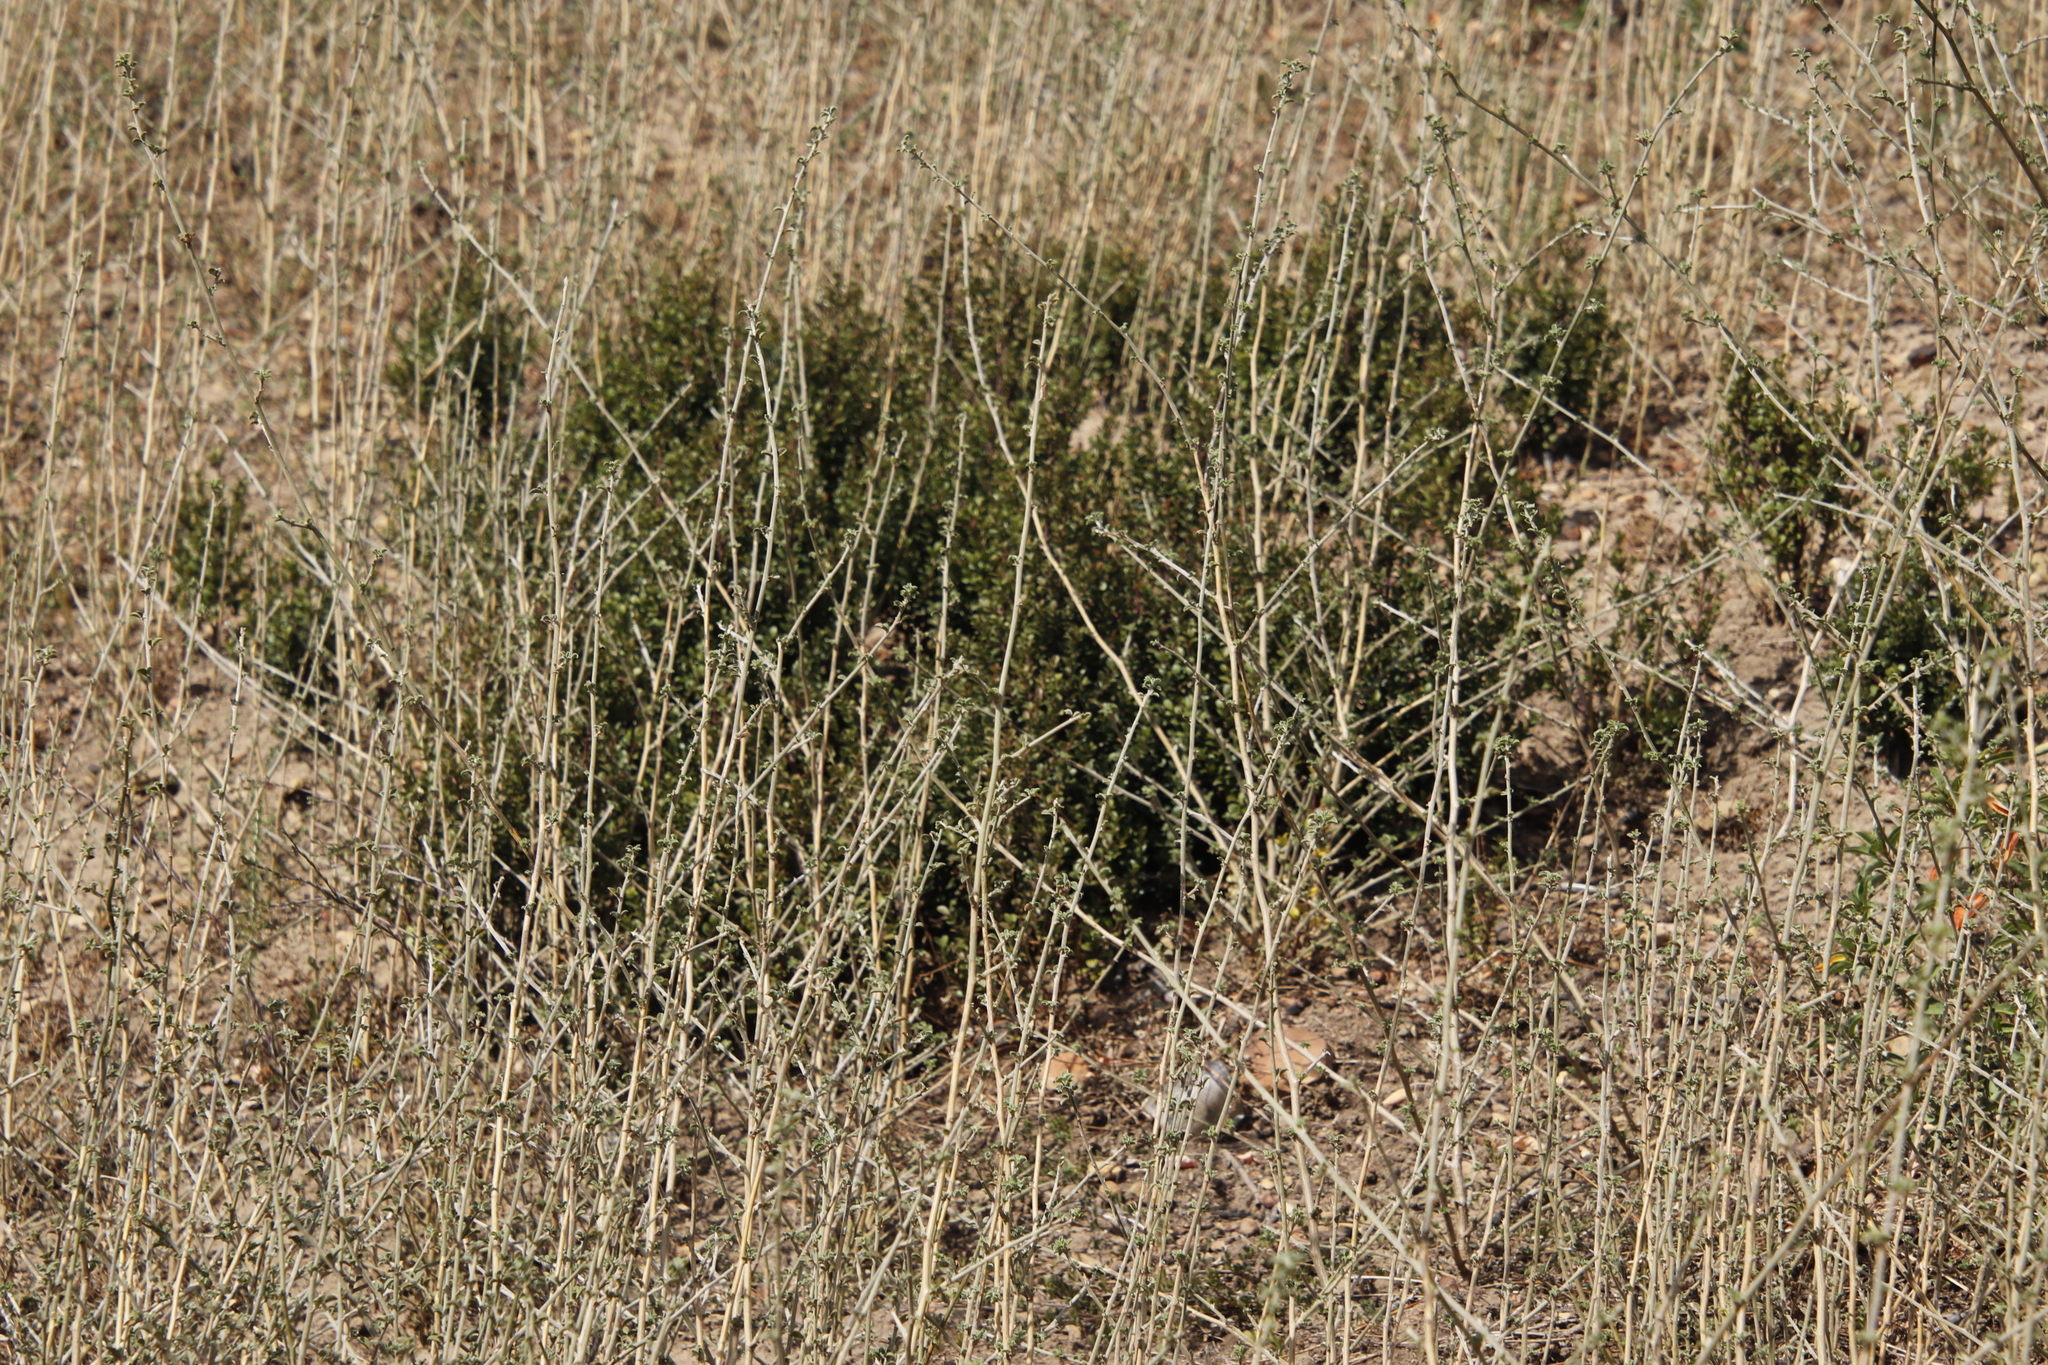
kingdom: Plantae
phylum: Tracheophyta
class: Magnoliopsida
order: Ericales
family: Primulaceae
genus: Myrsine
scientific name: Myrsine africana
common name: African-boxwood
